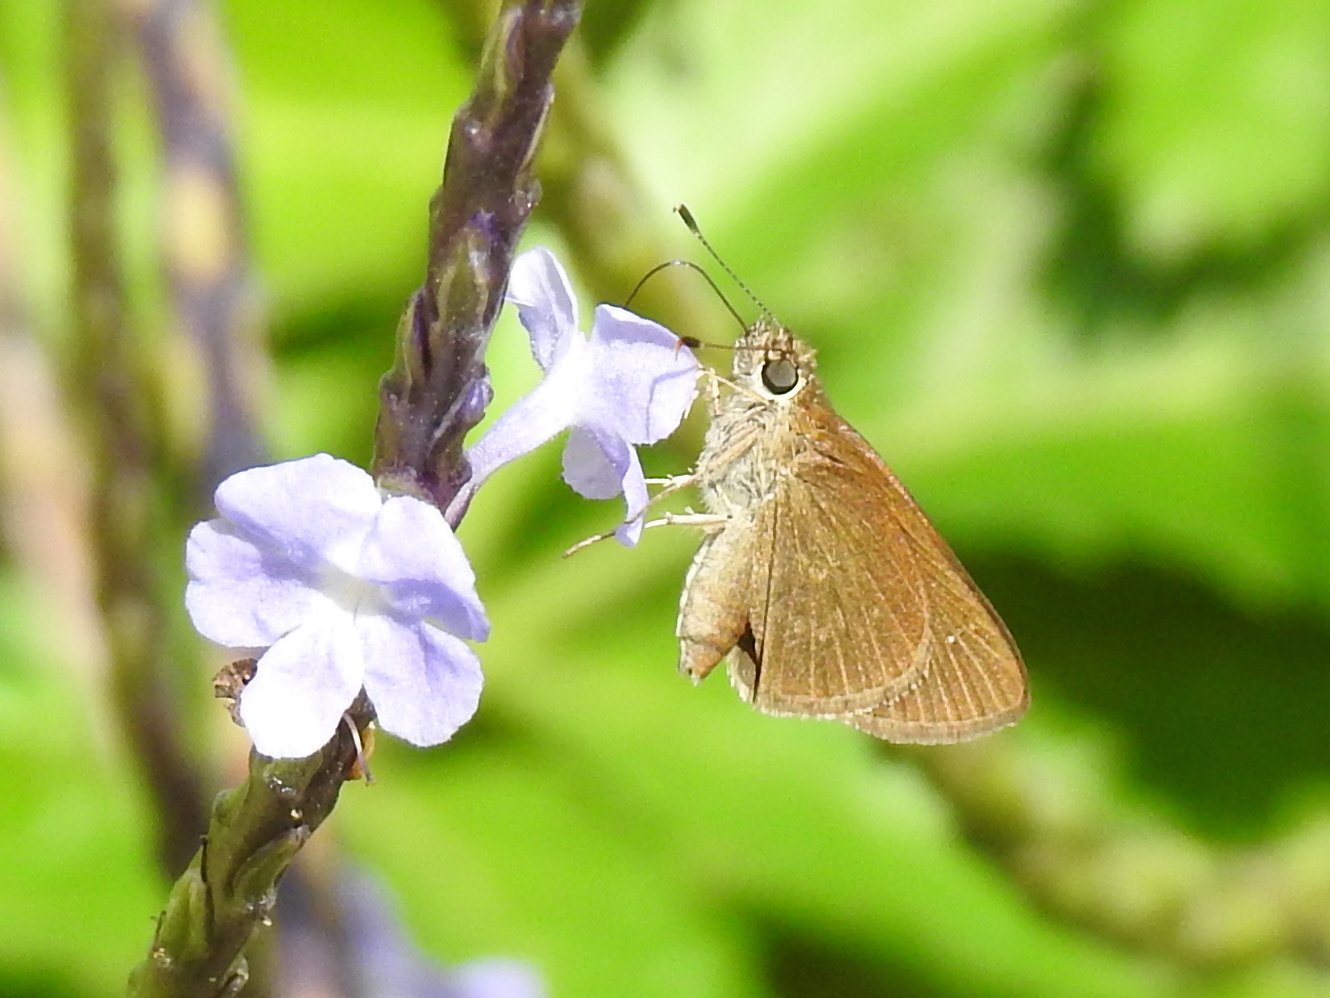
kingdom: Animalia
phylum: Arthropoda
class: Insecta
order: Lepidoptera
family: Hesperiidae
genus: Cymaenes
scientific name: Cymaenes tripunctus
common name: Dingy dotted skipper
